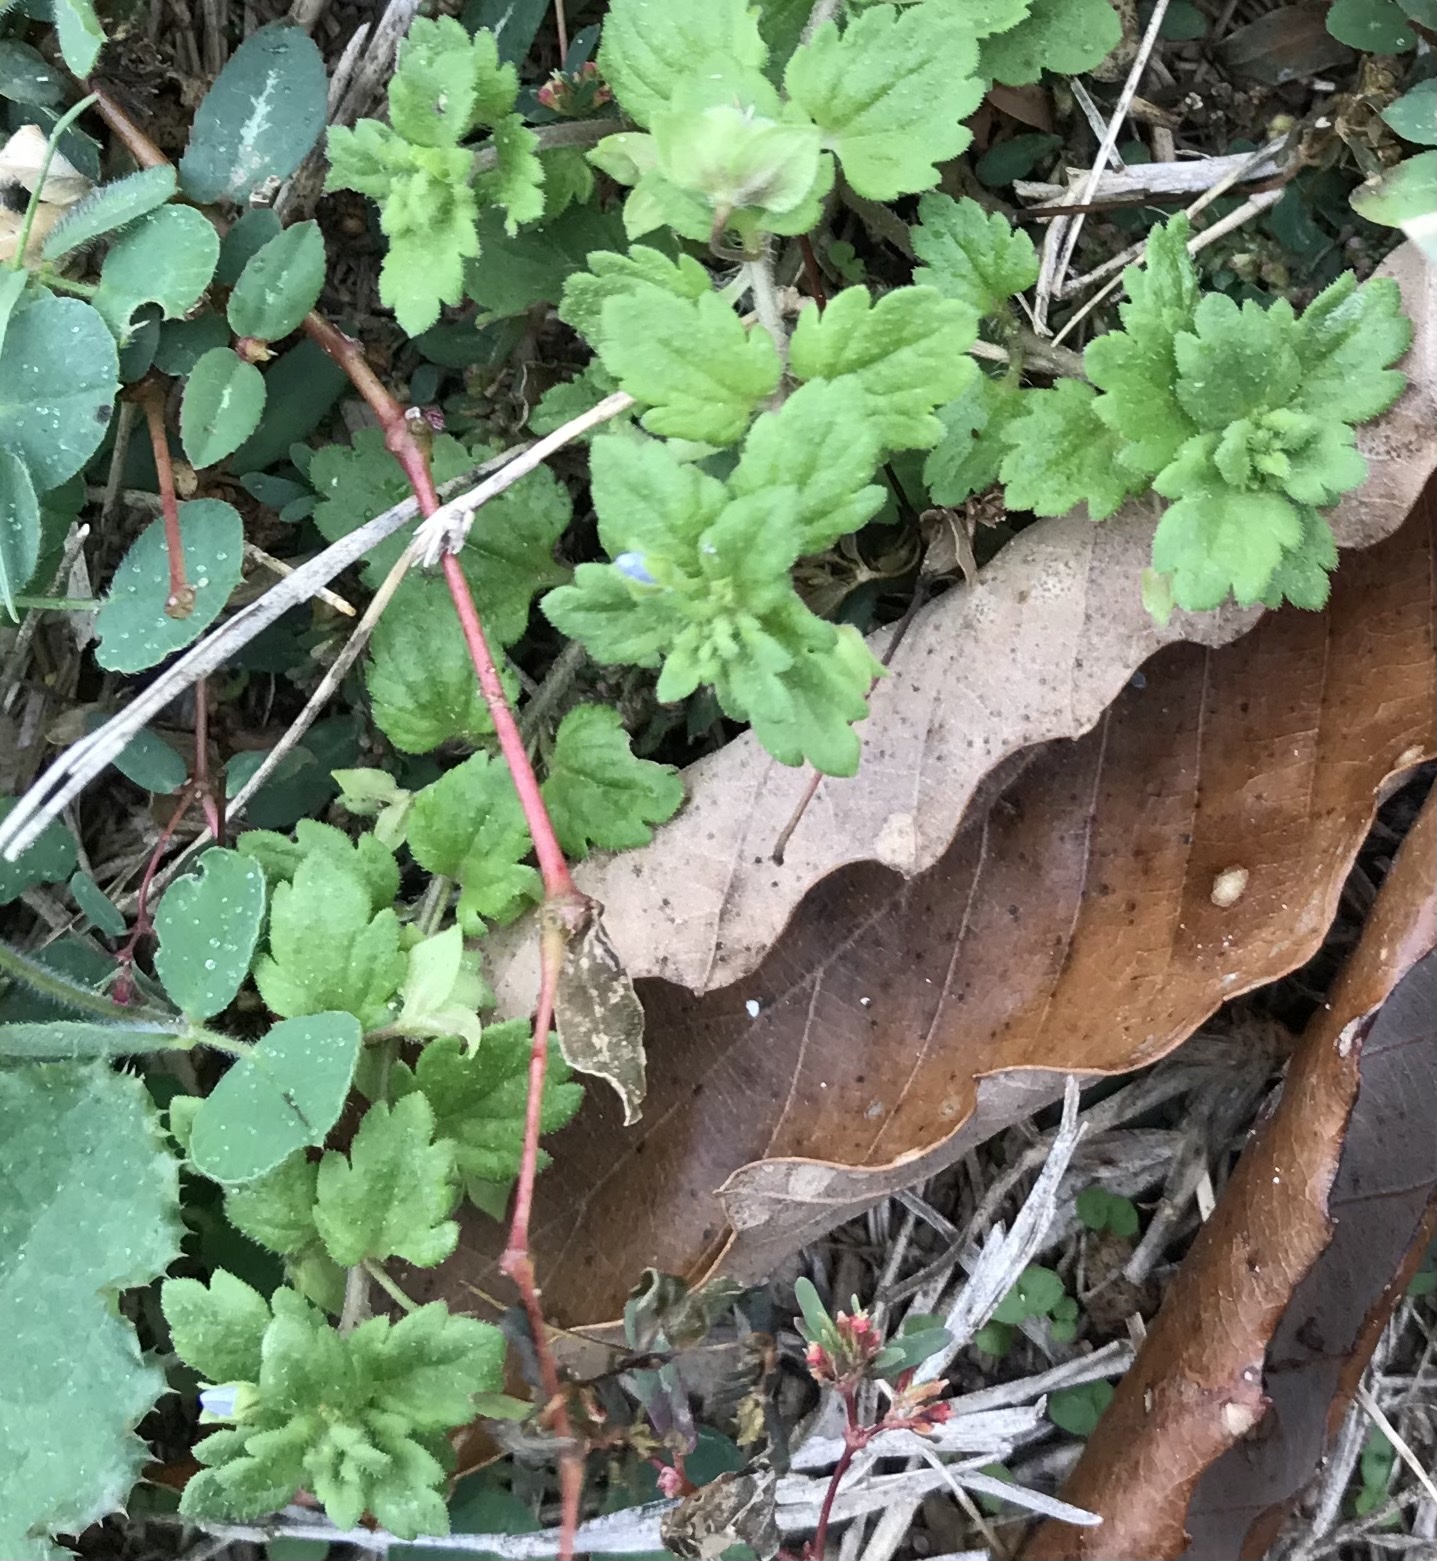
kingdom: Plantae
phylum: Tracheophyta
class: Magnoliopsida
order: Lamiales
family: Plantaginaceae
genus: Veronica
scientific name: Veronica polita
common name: Grey field-speedwell
